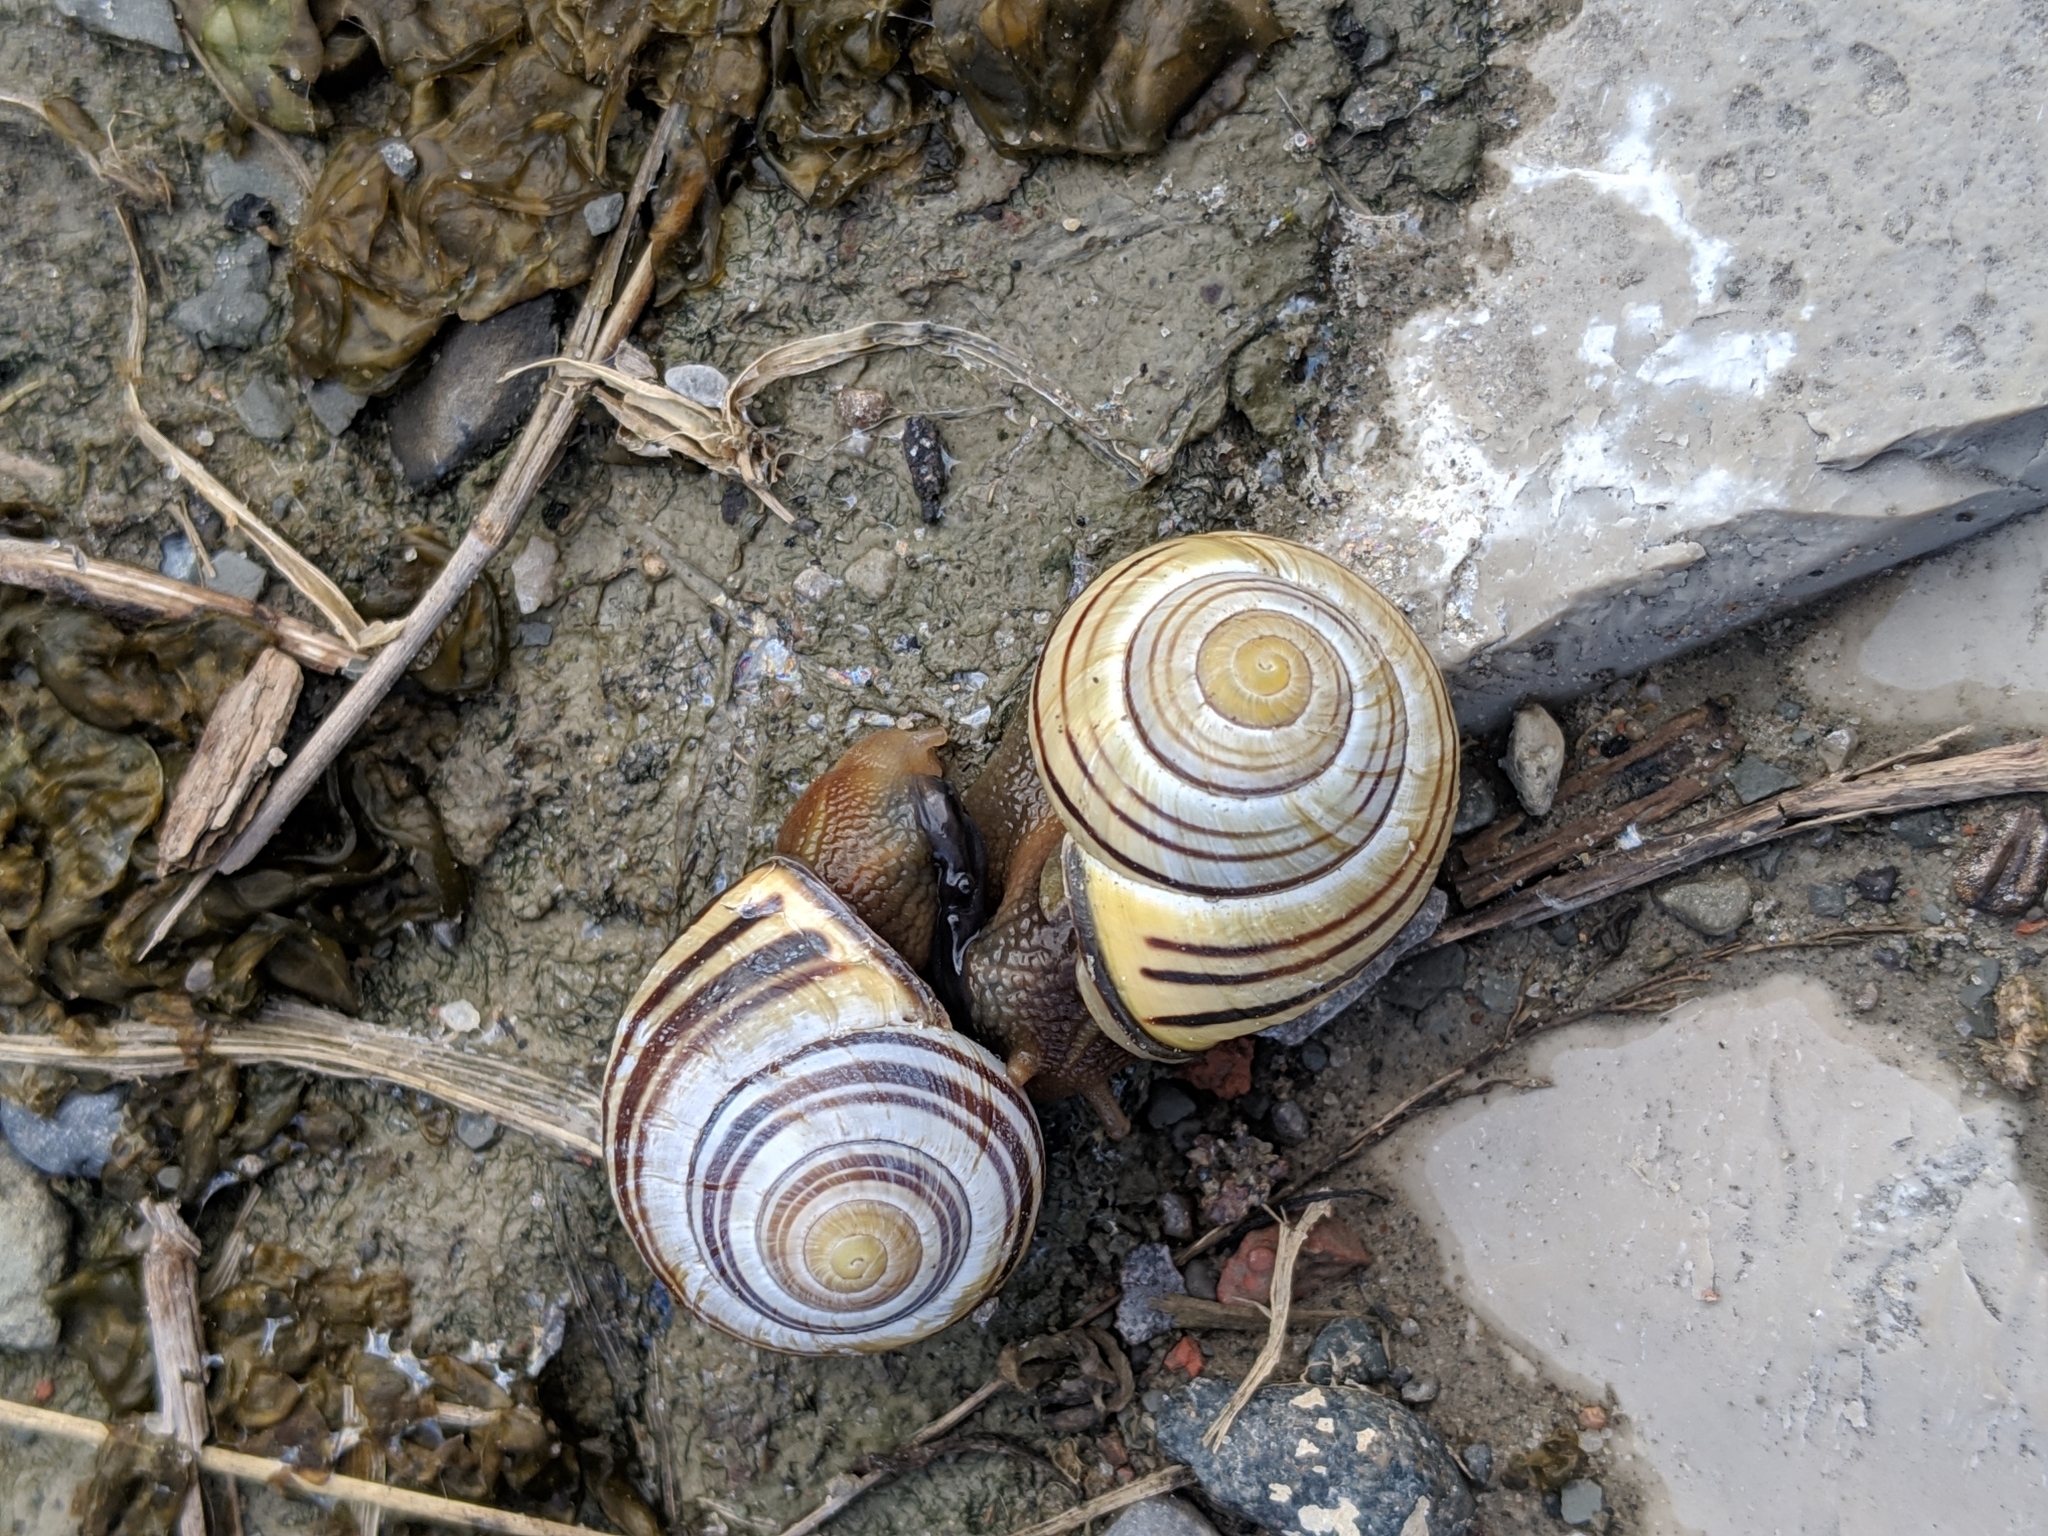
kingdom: Animalia
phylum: Mollusca
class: Gastropoda
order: Stylommatophora
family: Helicidae
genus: Cepaea
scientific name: Cepaea nemoralis
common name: Grovesnail
